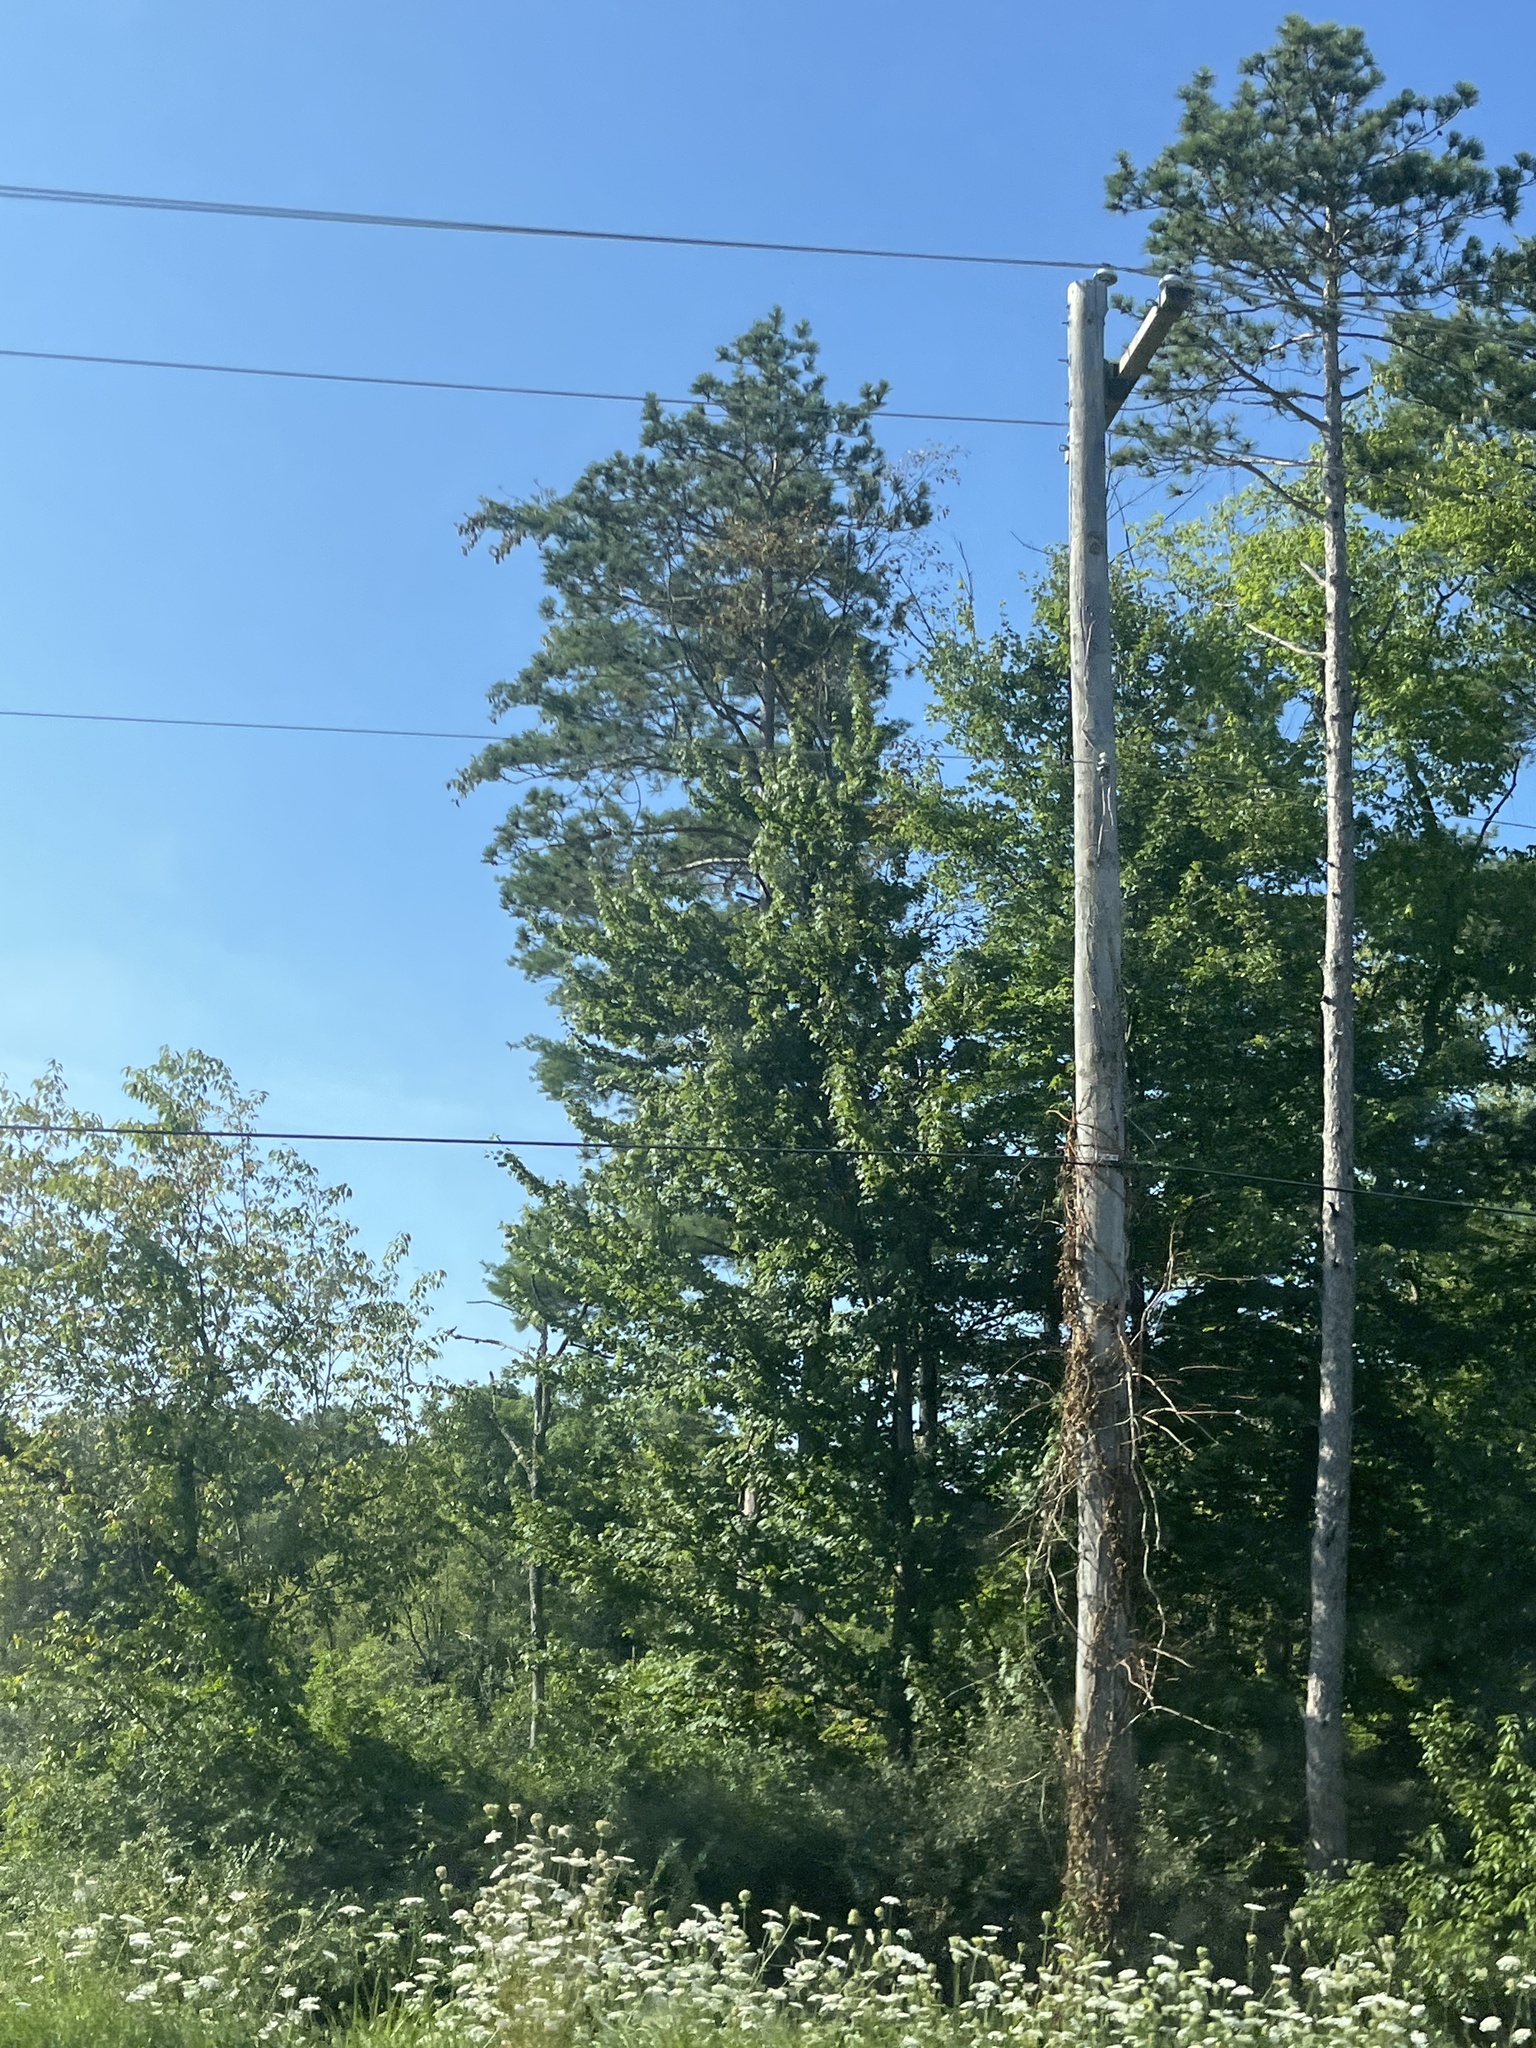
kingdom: Plantae
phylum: Tracheophyta
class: Pinopsida
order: Pinales
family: Pinaceae
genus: Pinus
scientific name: Pinus resinosa
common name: Norway pine
